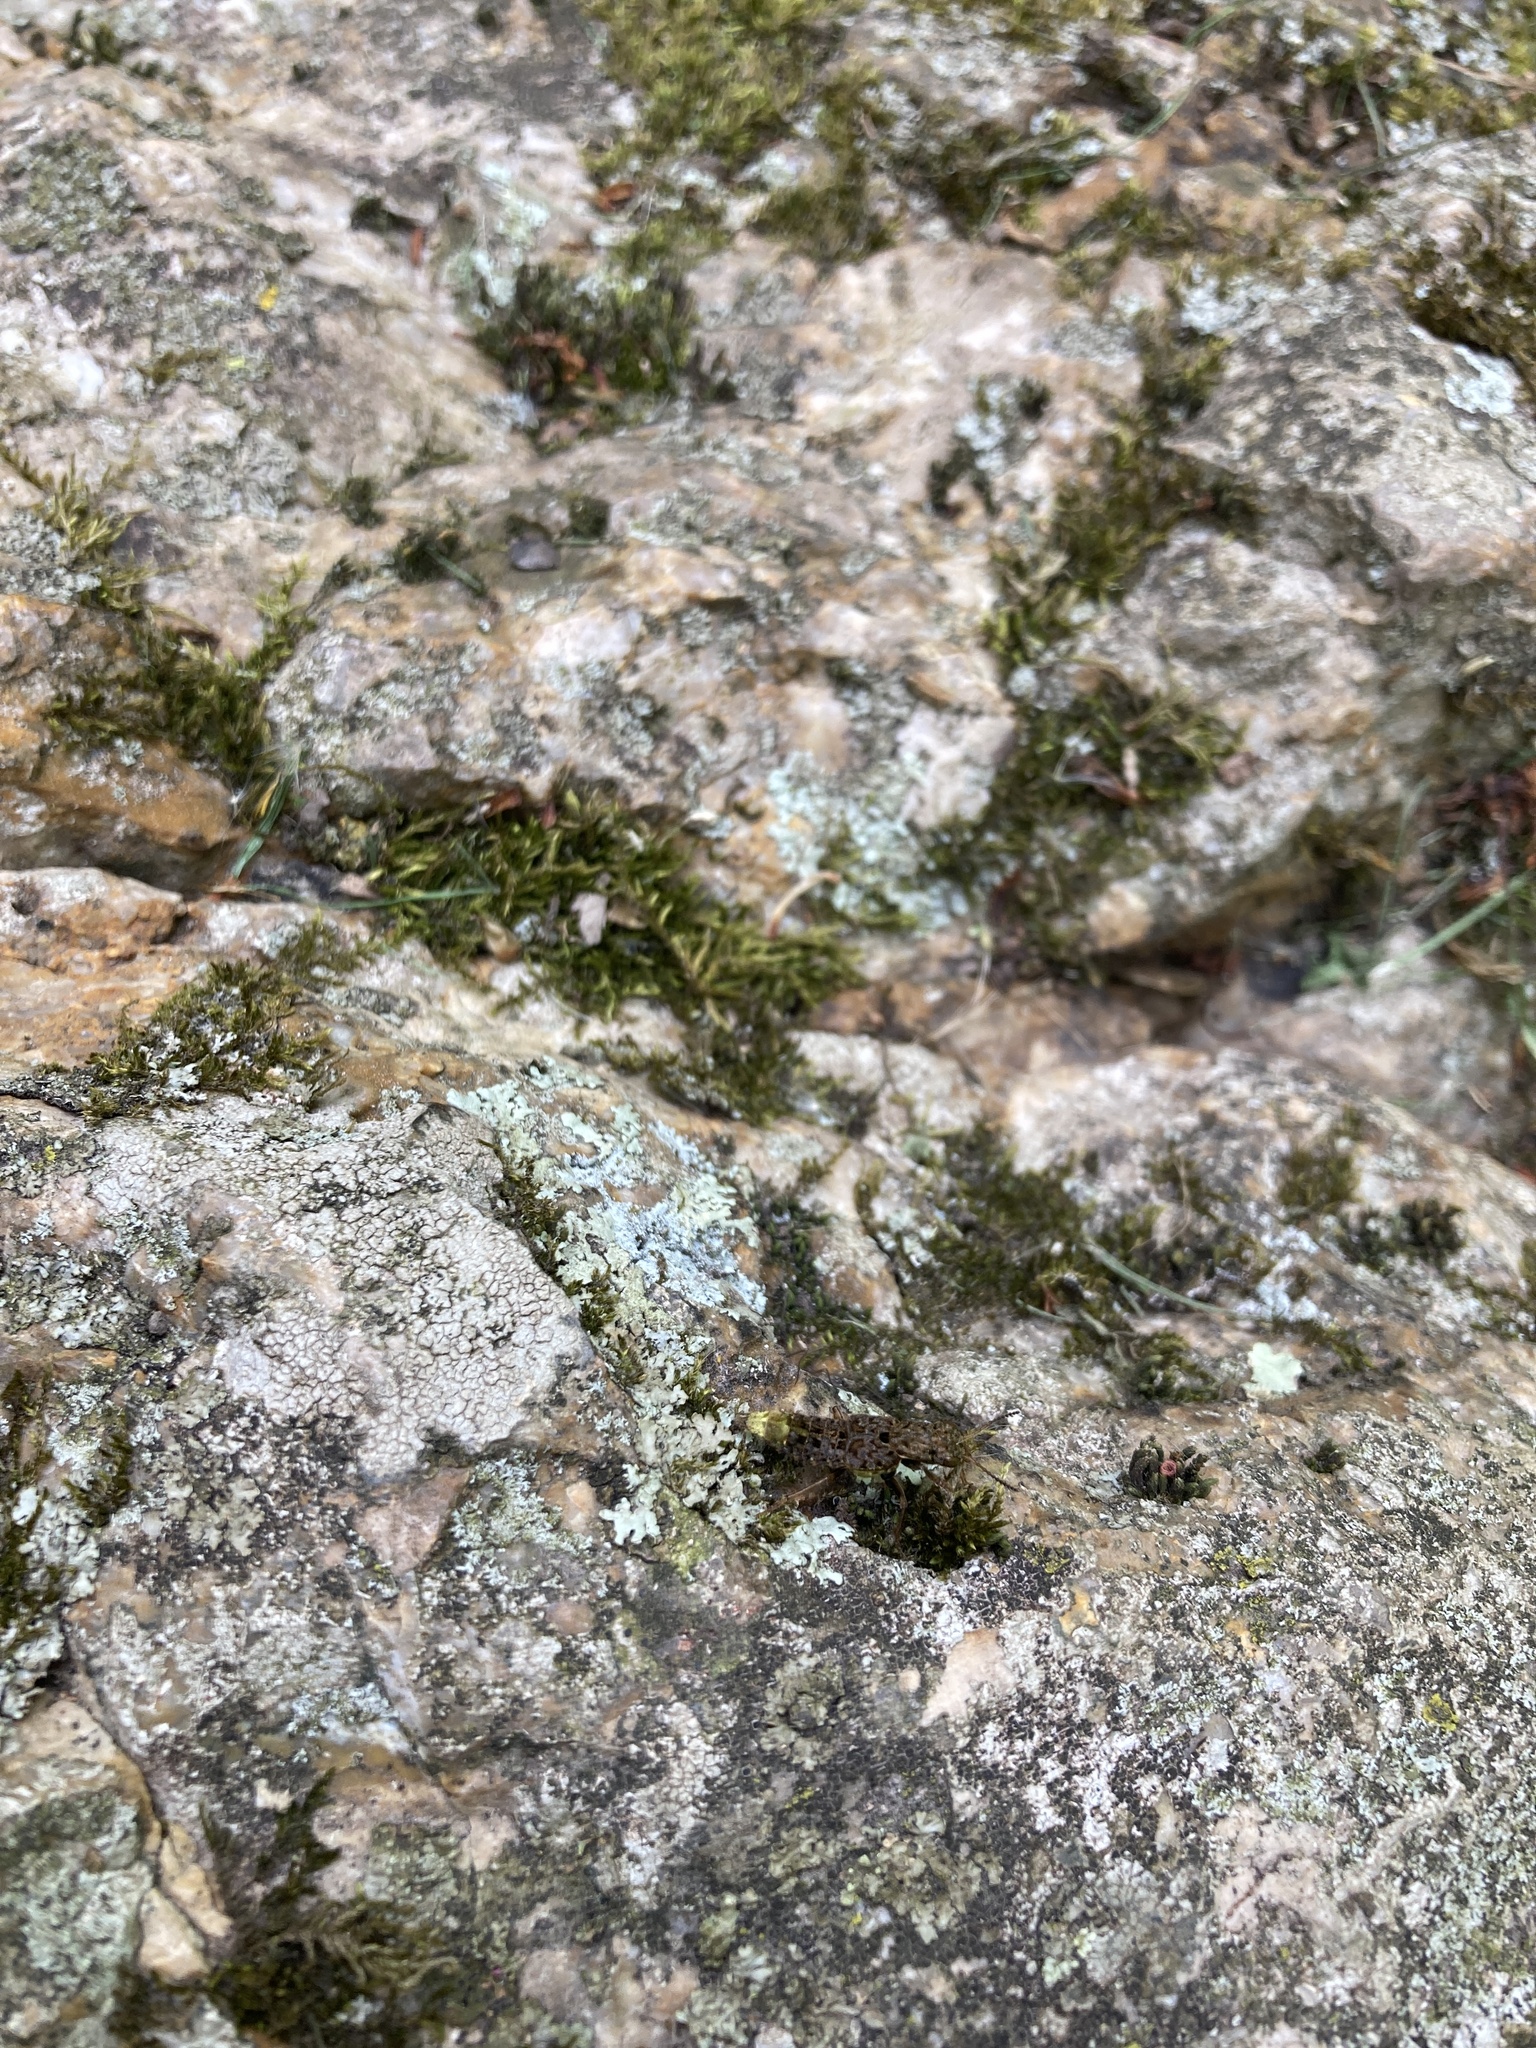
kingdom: Animalia
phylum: Arthropoda
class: Insecta
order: Coleoptera
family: Staphylinidae
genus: Ontholestes
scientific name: Ontholestes cingulatus
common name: Gold-and-brown rove beetle
